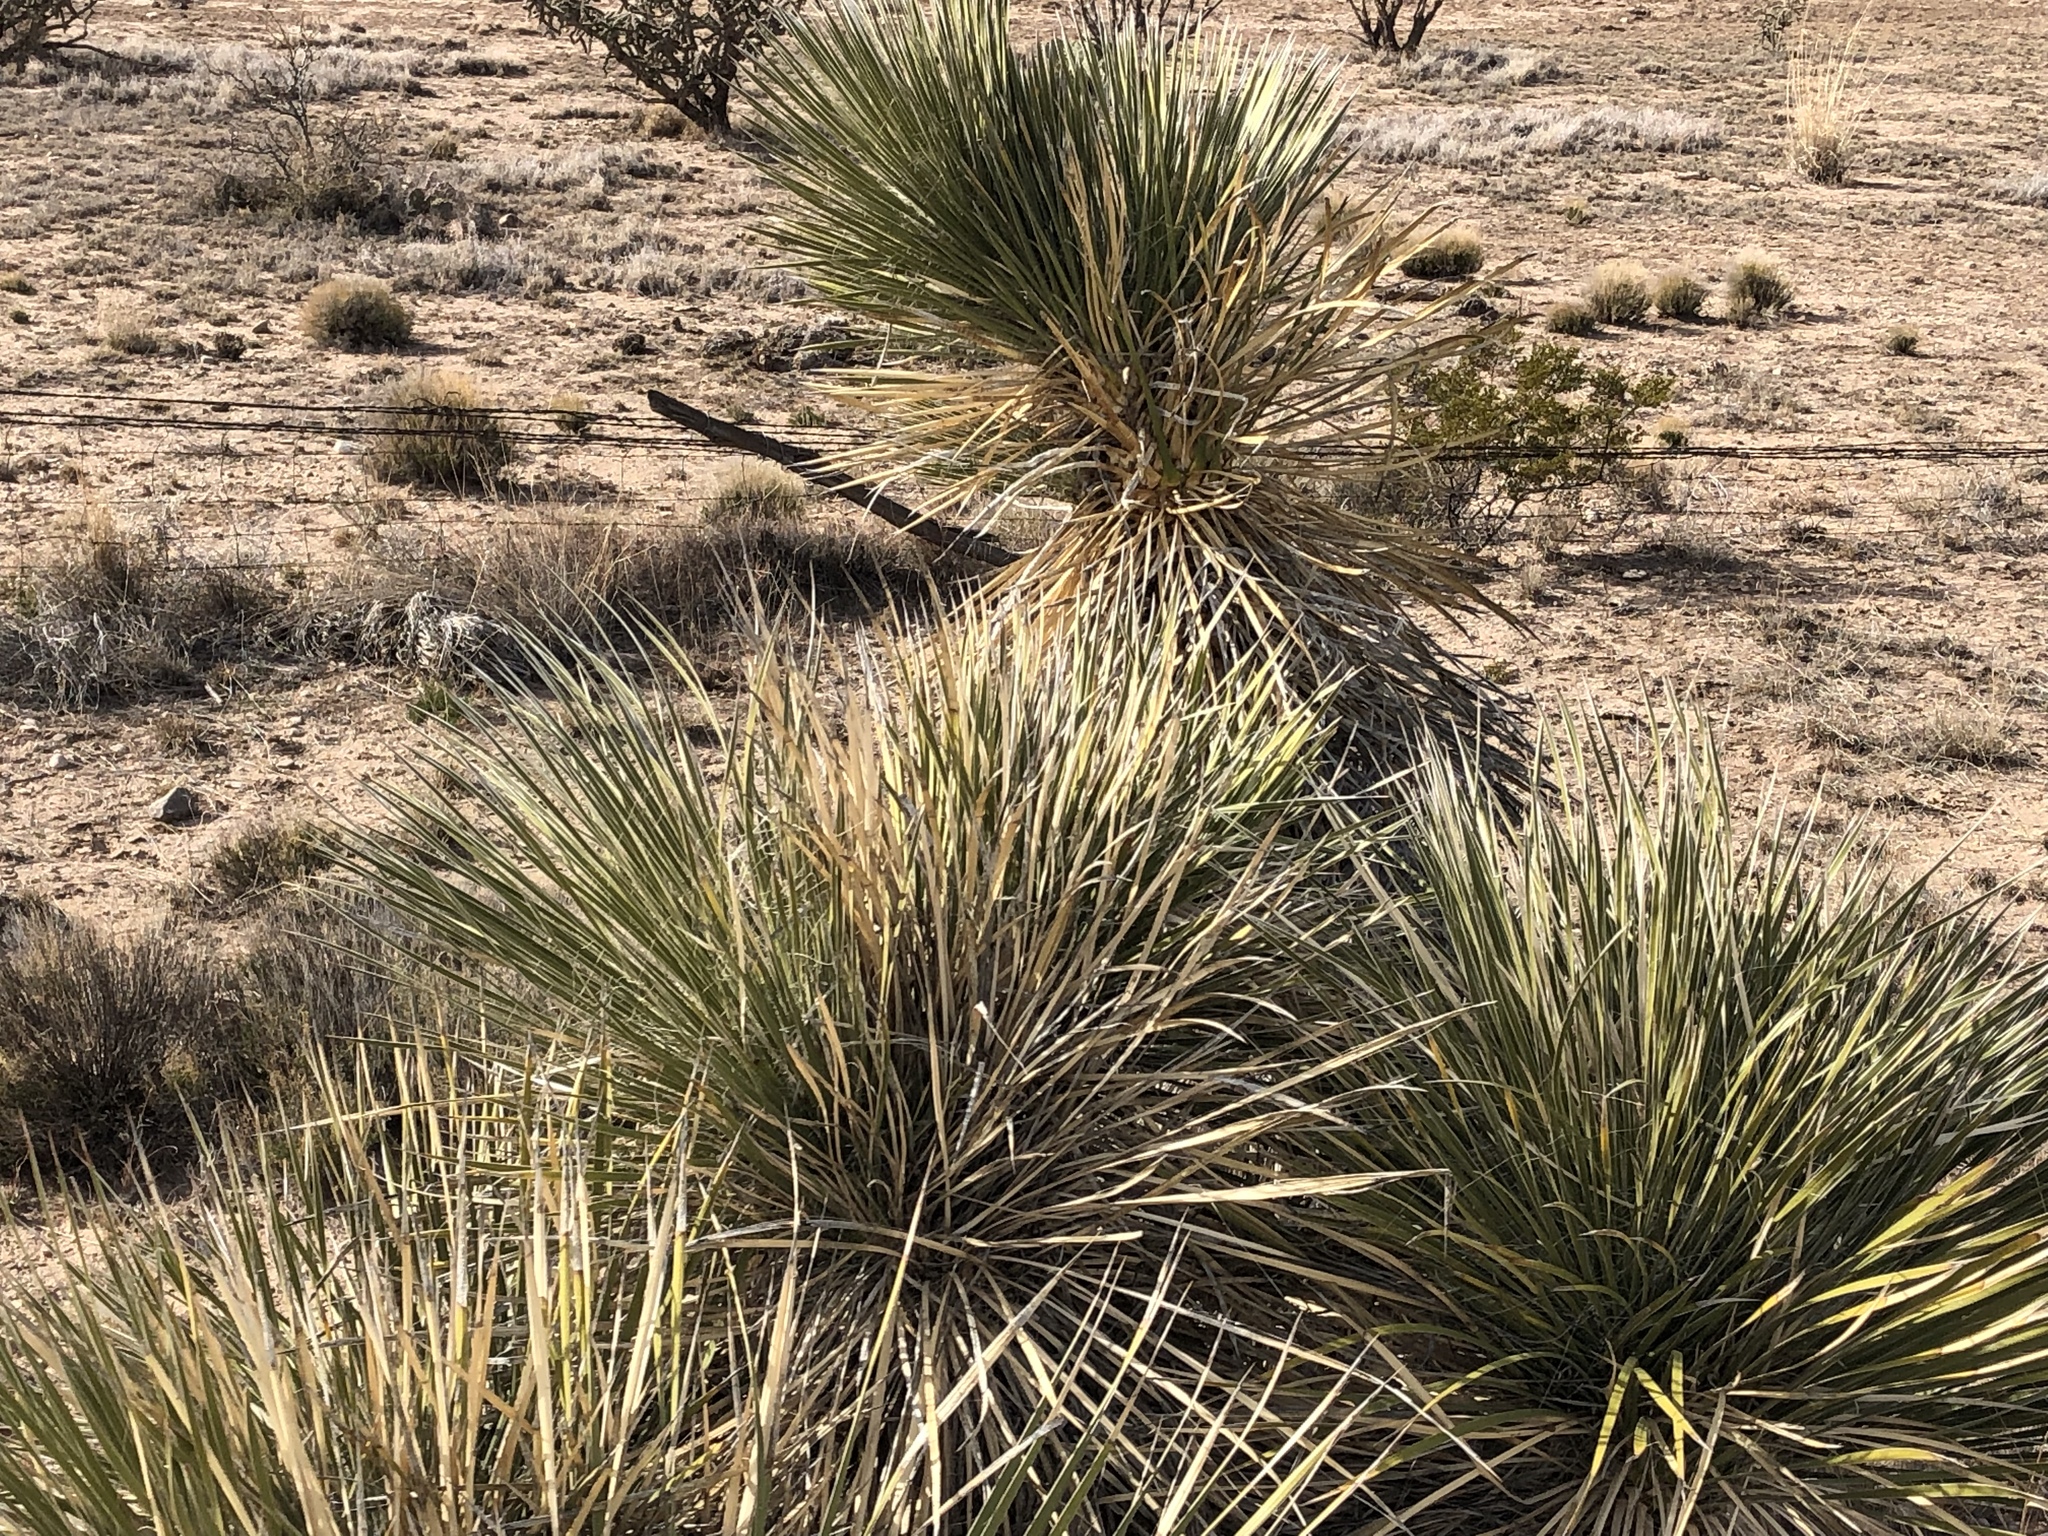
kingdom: Plantae
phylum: Tracheophyta
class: Liliopsida
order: Asparagales
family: Asparagaceae
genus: Yucca
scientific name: Yucca elata
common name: Palmella
